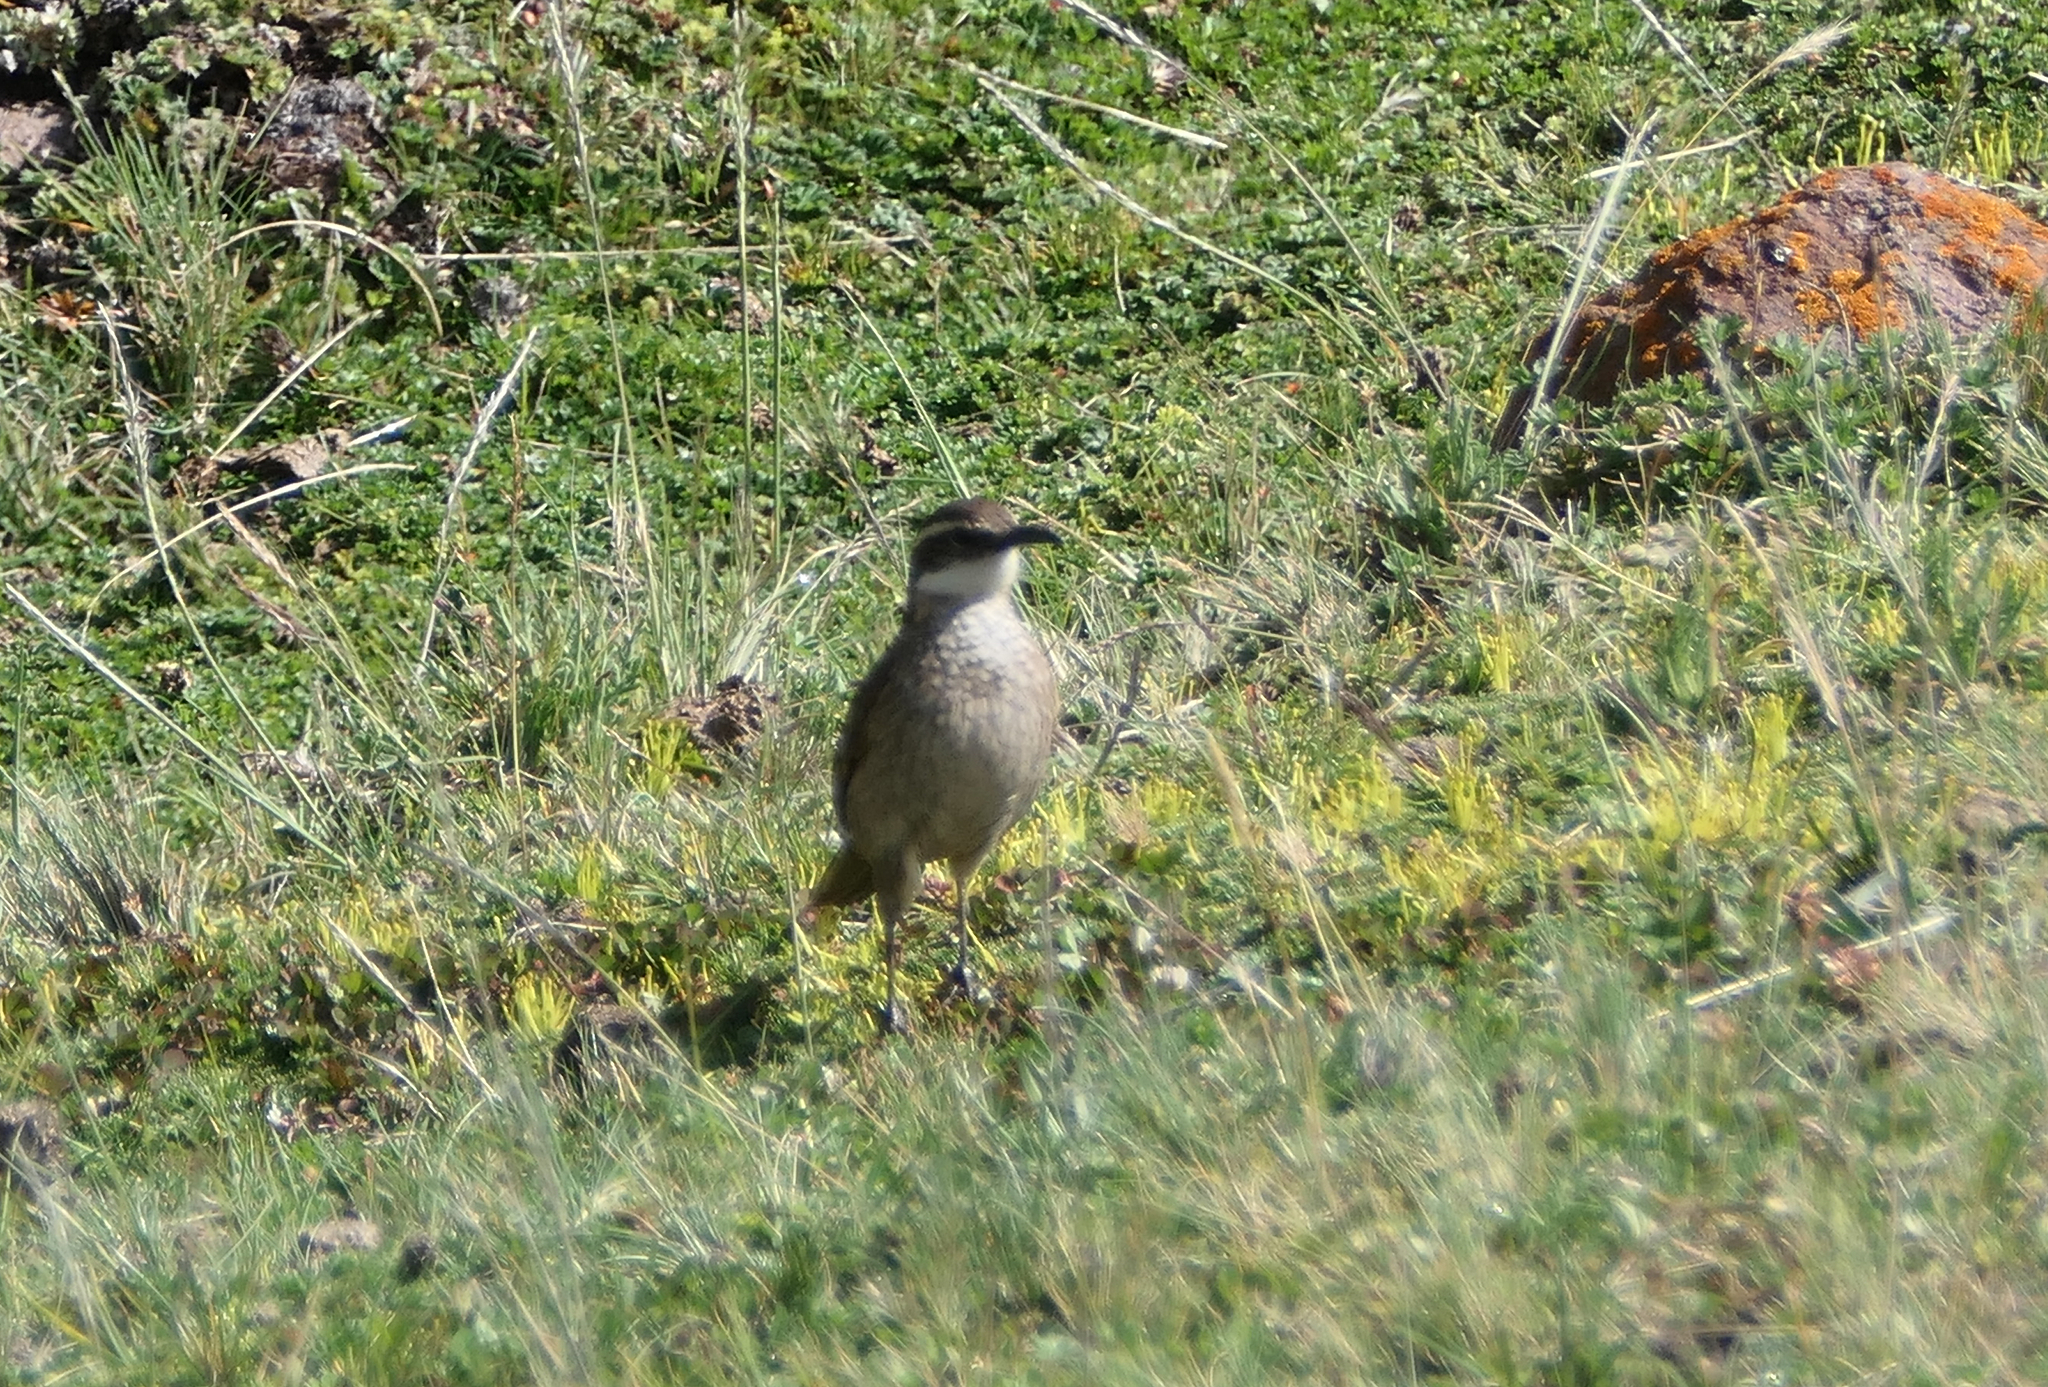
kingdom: Animalia
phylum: Chordata
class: Aves
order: Passeriformes
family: Furnariidae
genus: Cinclodes
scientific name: Cinclodes excelsior
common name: Stout-billed cinclodes
